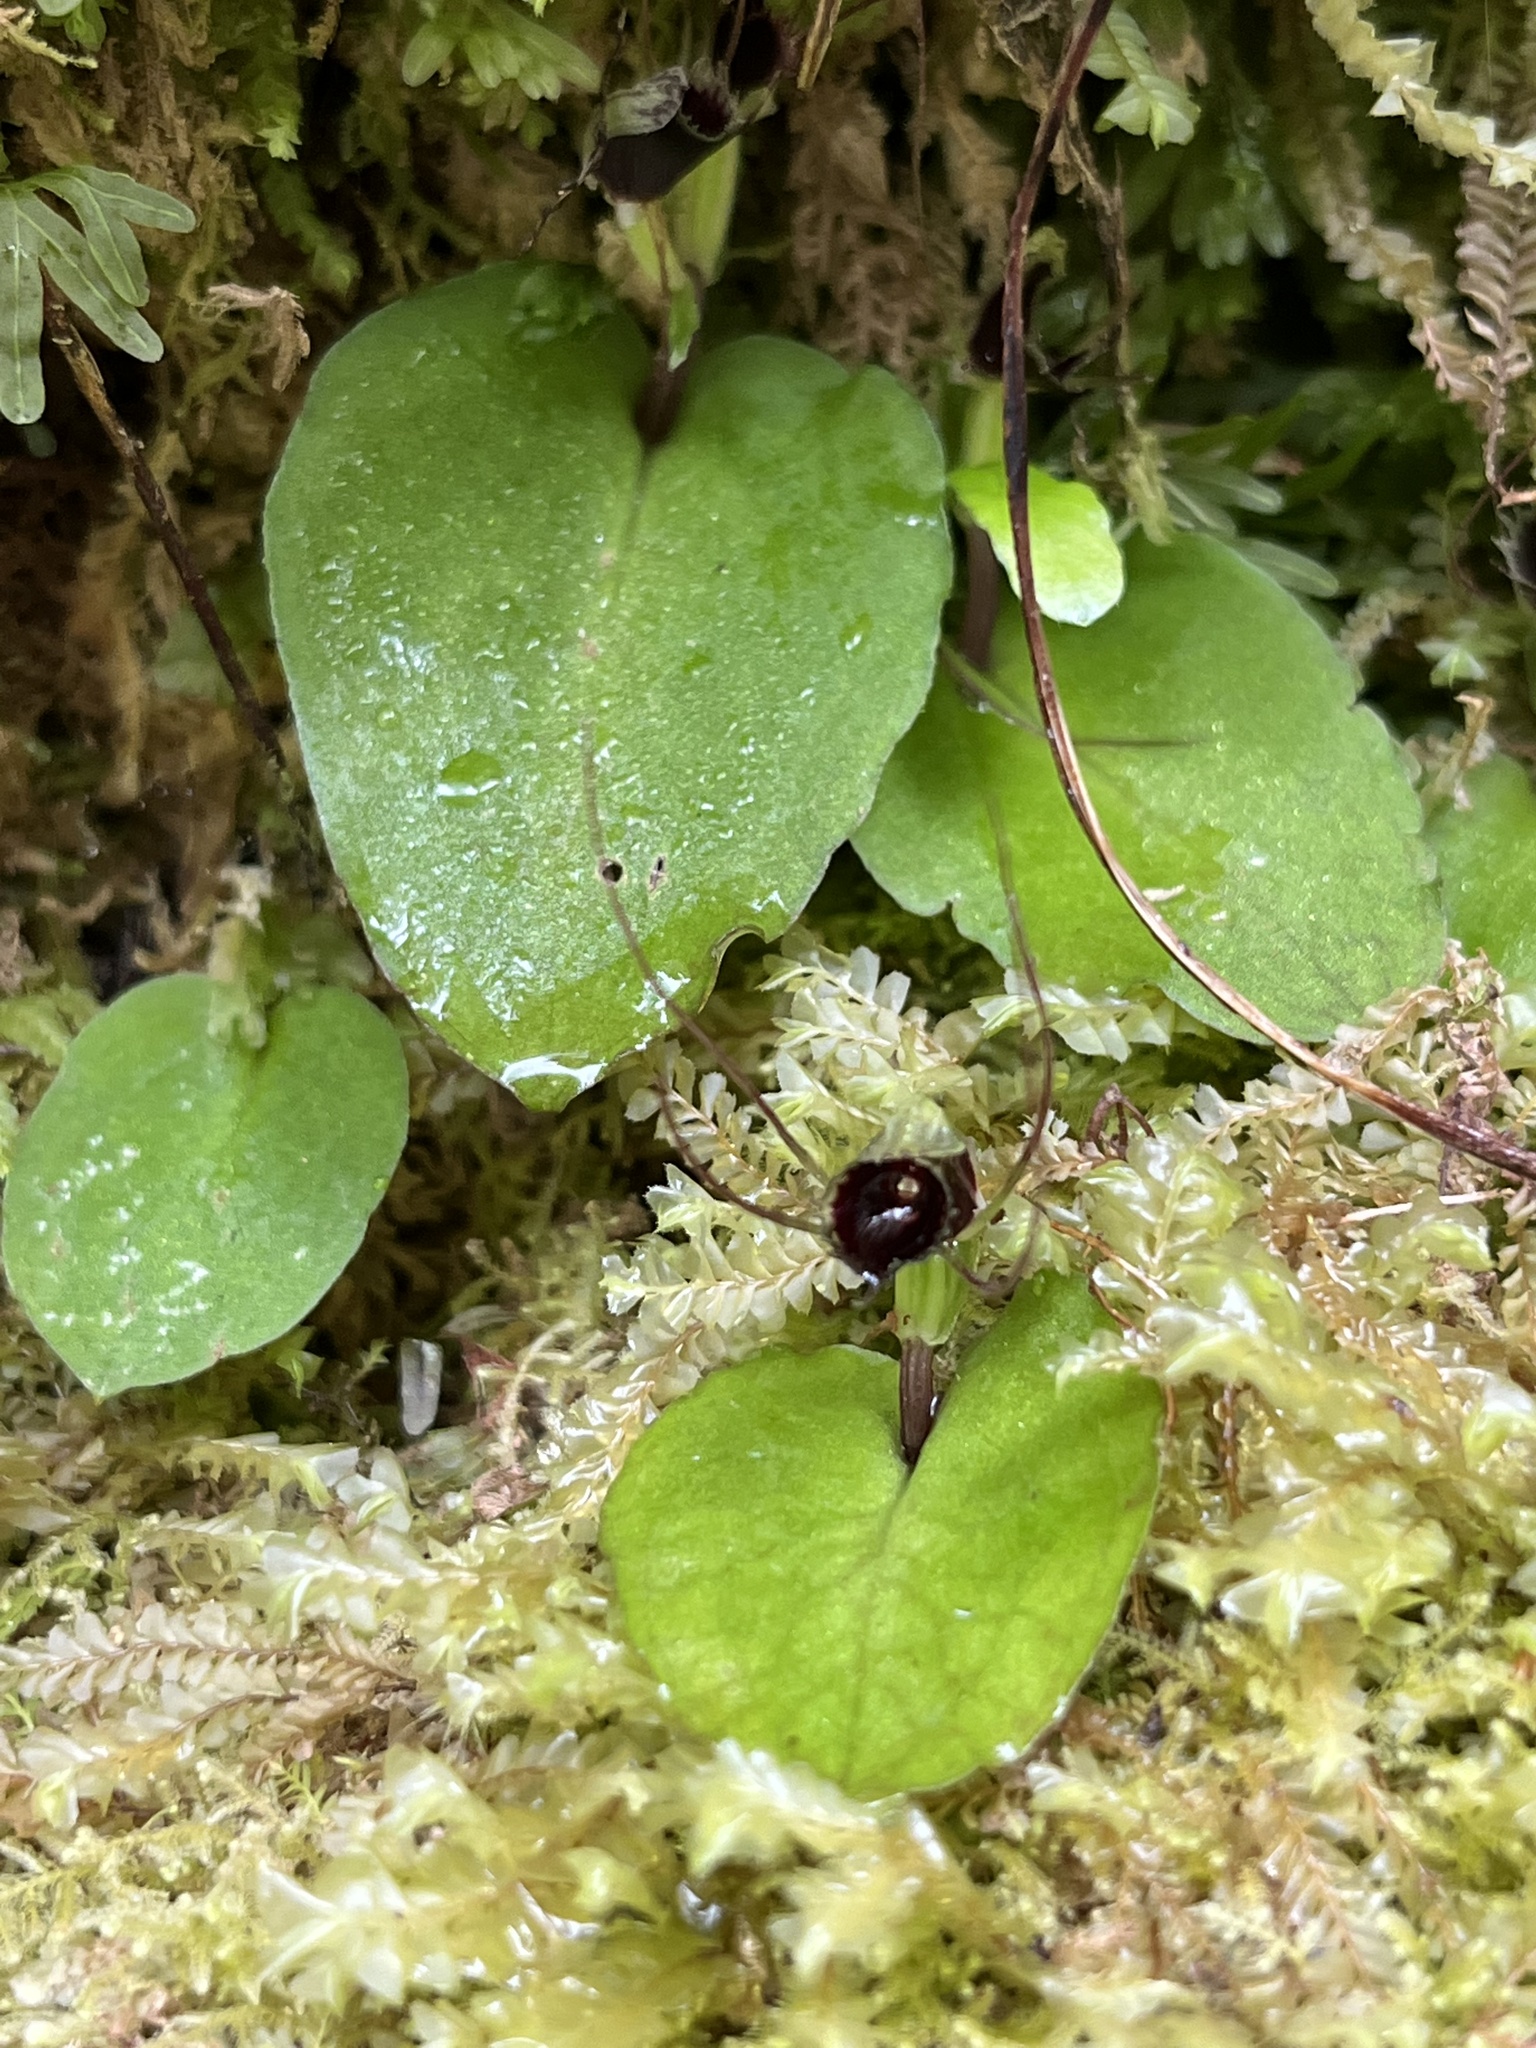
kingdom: Plantae
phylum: Tracheophyta
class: Liliopsida
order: Asparagales
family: Orchidaceae
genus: Corybas
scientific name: Corybas oblongus
